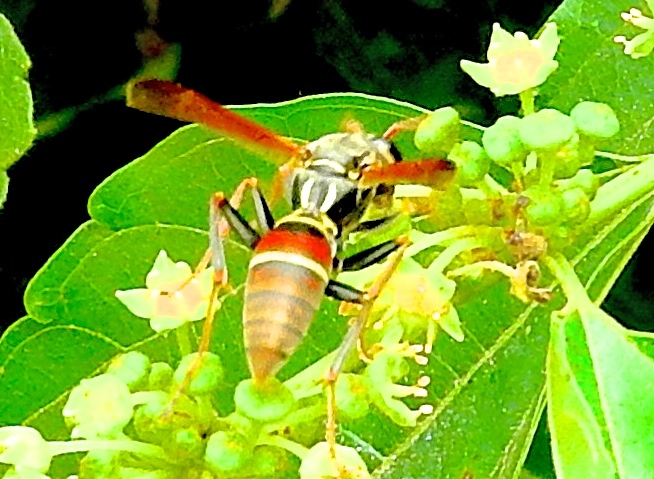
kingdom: Animalia
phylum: Arthropoda
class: Insecta
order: Hymenoptera
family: Eumenidae
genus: Polistes
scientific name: Polistes pacificus
